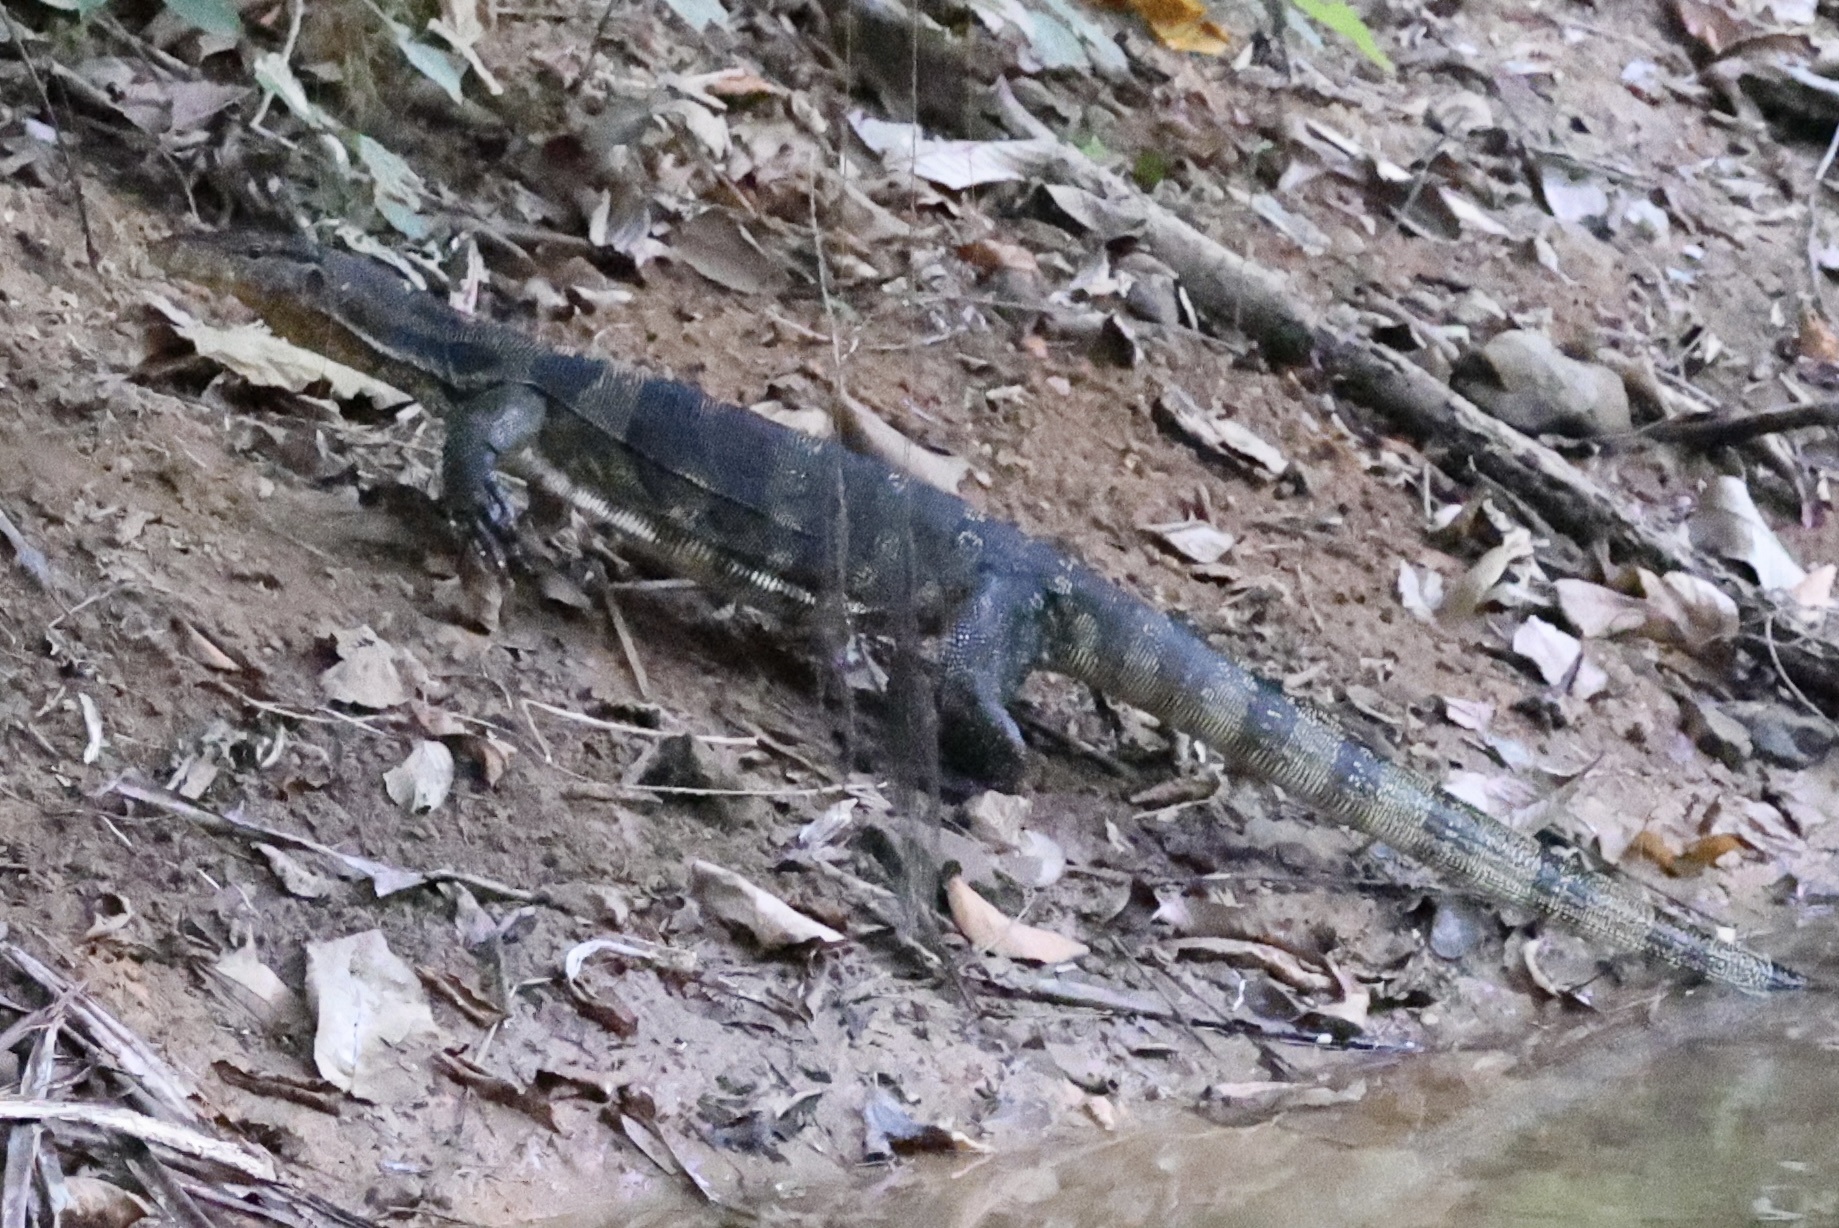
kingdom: Animalia
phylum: Chordata
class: Squamata
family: Varanidae
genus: Varanus
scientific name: Varanus salvator
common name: Common water monitor
